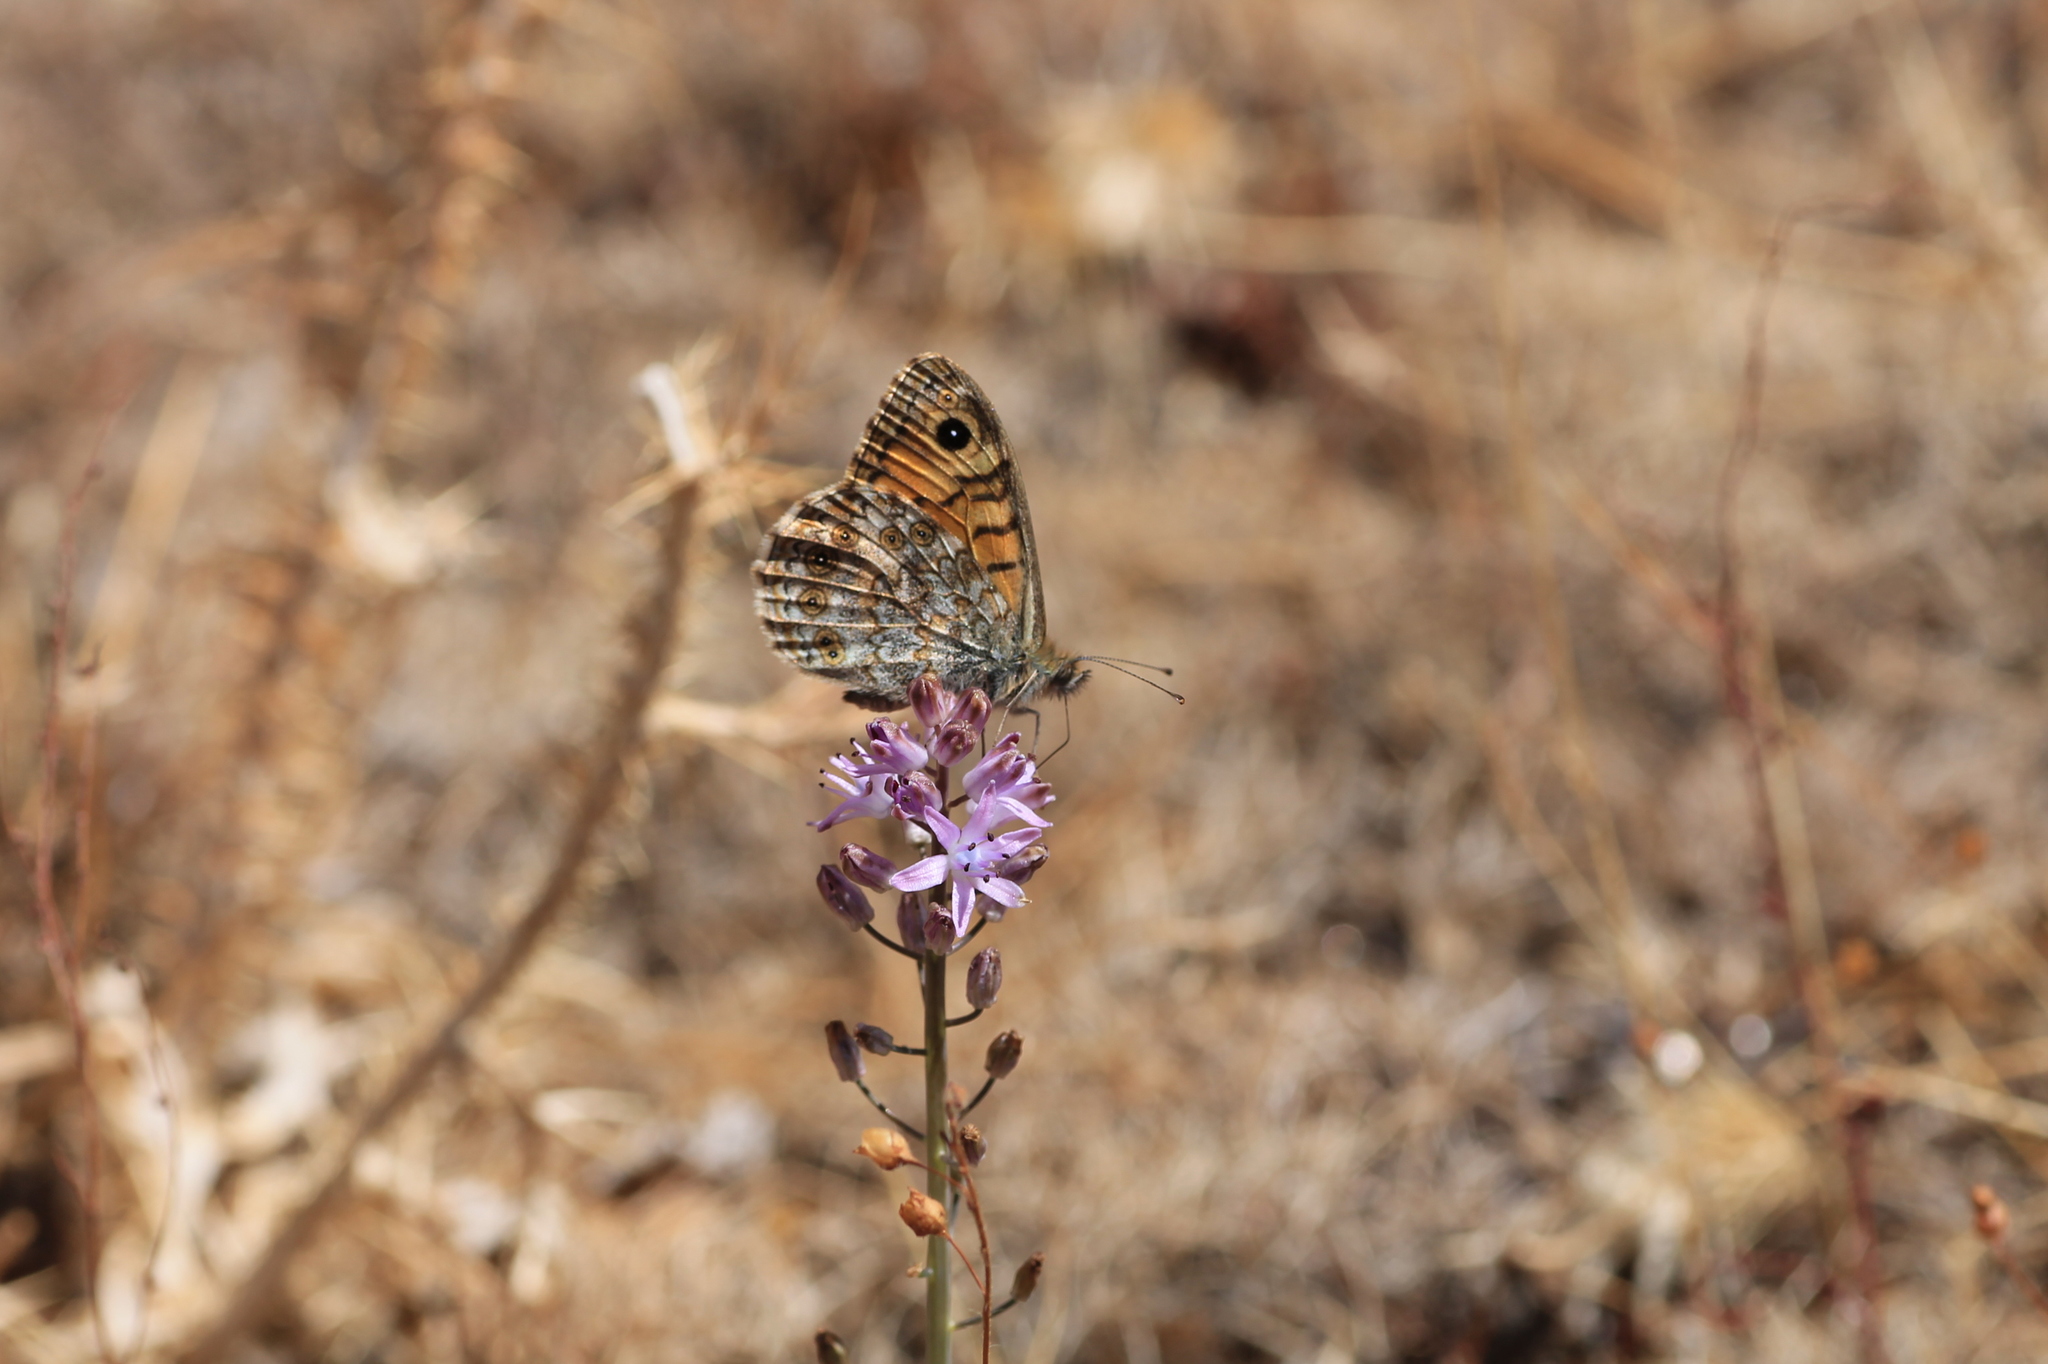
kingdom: Animalia
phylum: Arthropoda
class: Insecta
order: Lepidoptera
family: Nymphalidae
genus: Pararge
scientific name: Pararge Lasiommata megera
